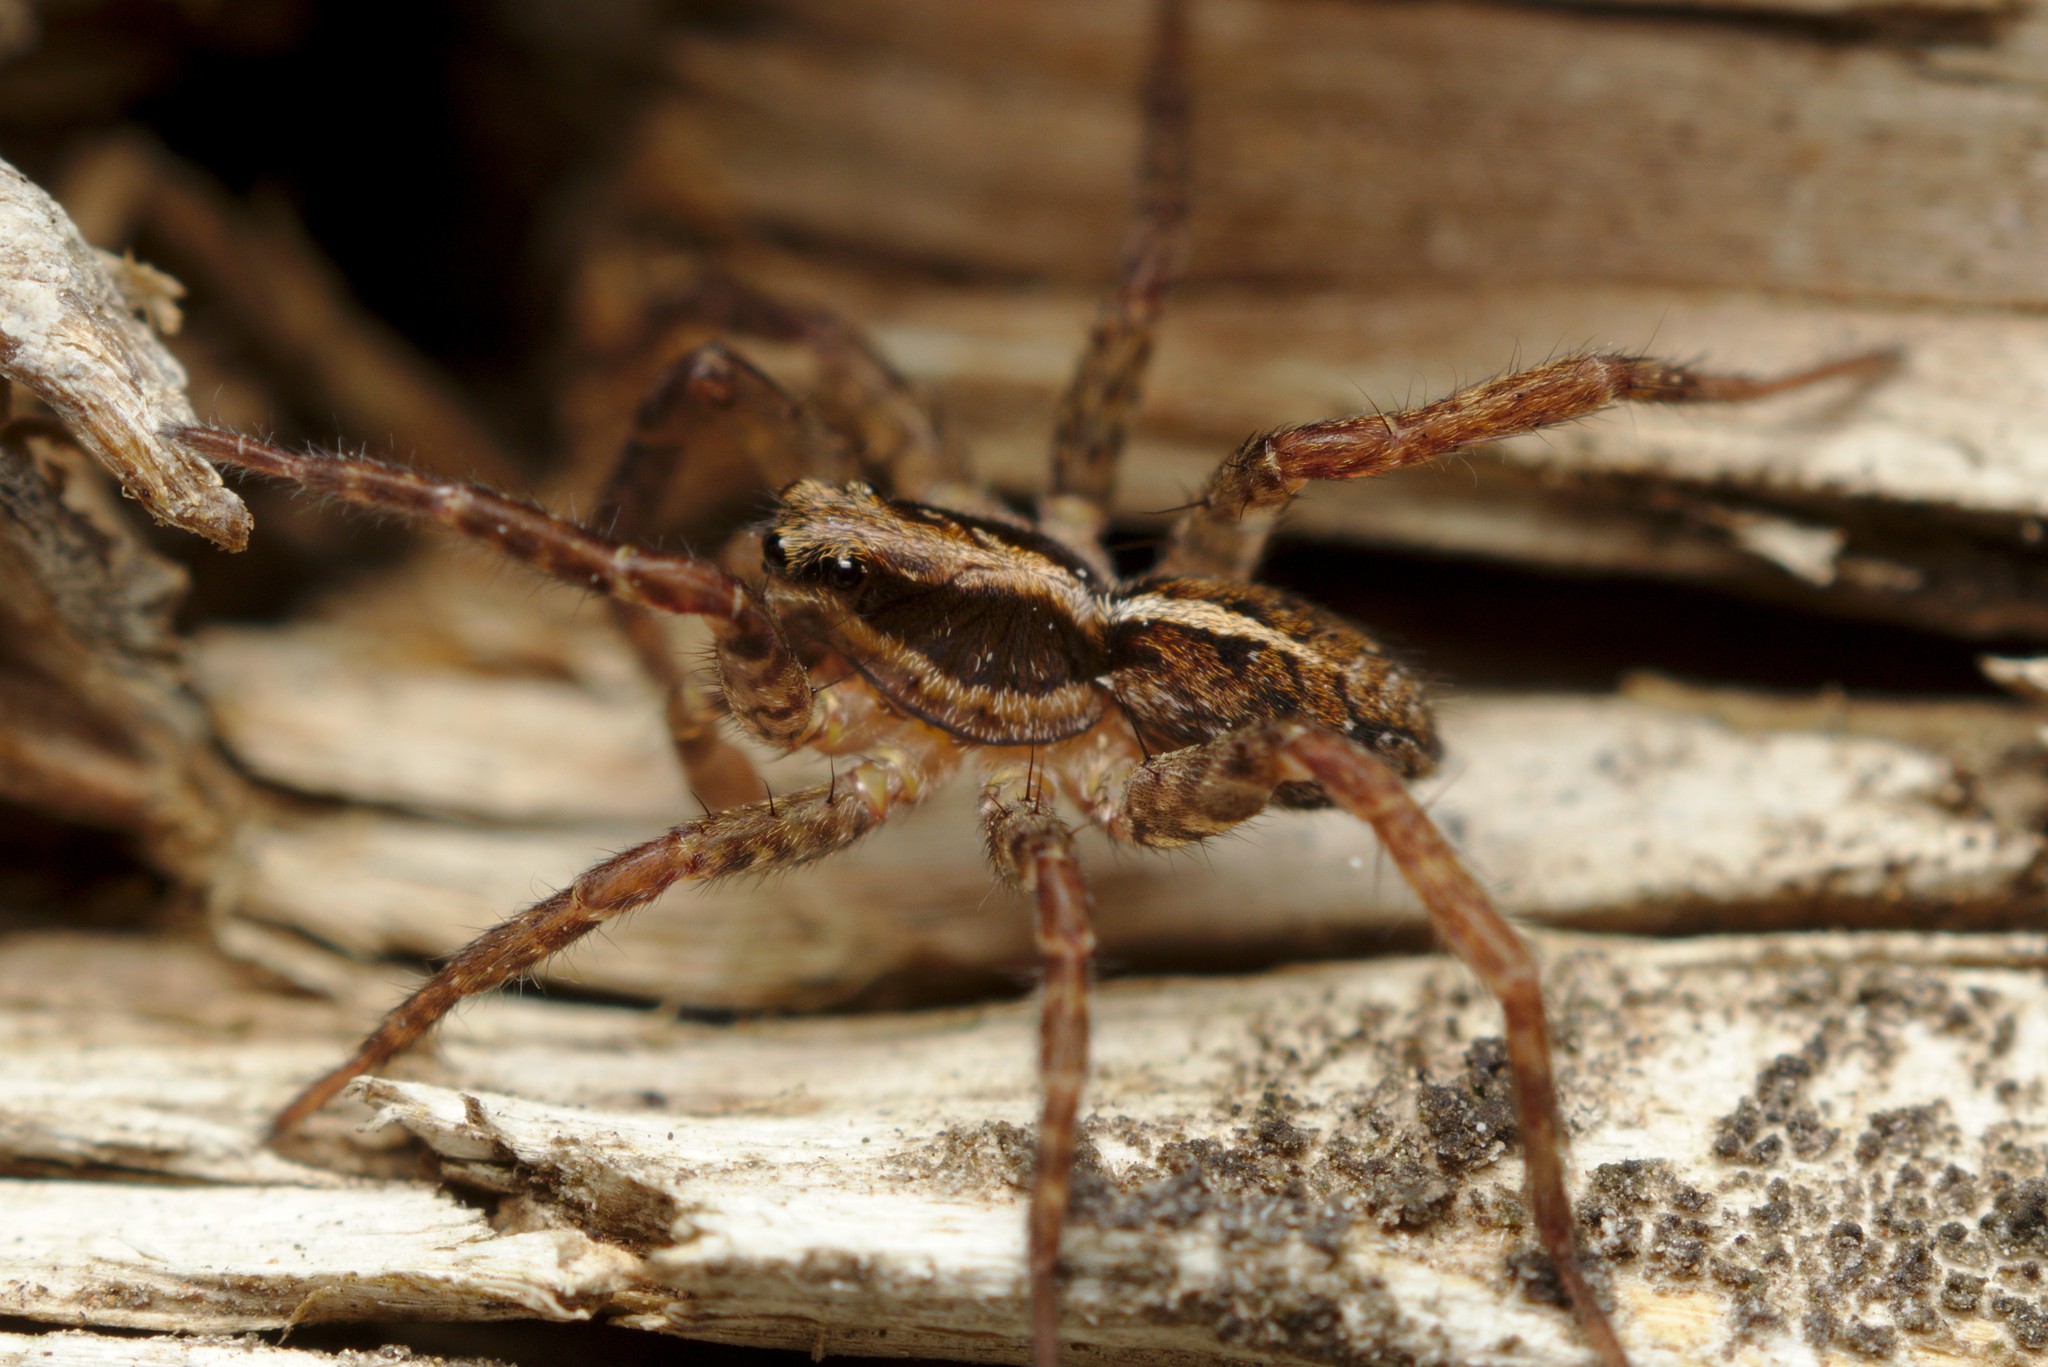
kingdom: Animalia
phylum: Arthropoda
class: Arachnida
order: Araneae
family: Lycosidae
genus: Anoteropsis
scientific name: Anoteropsis hilaris
